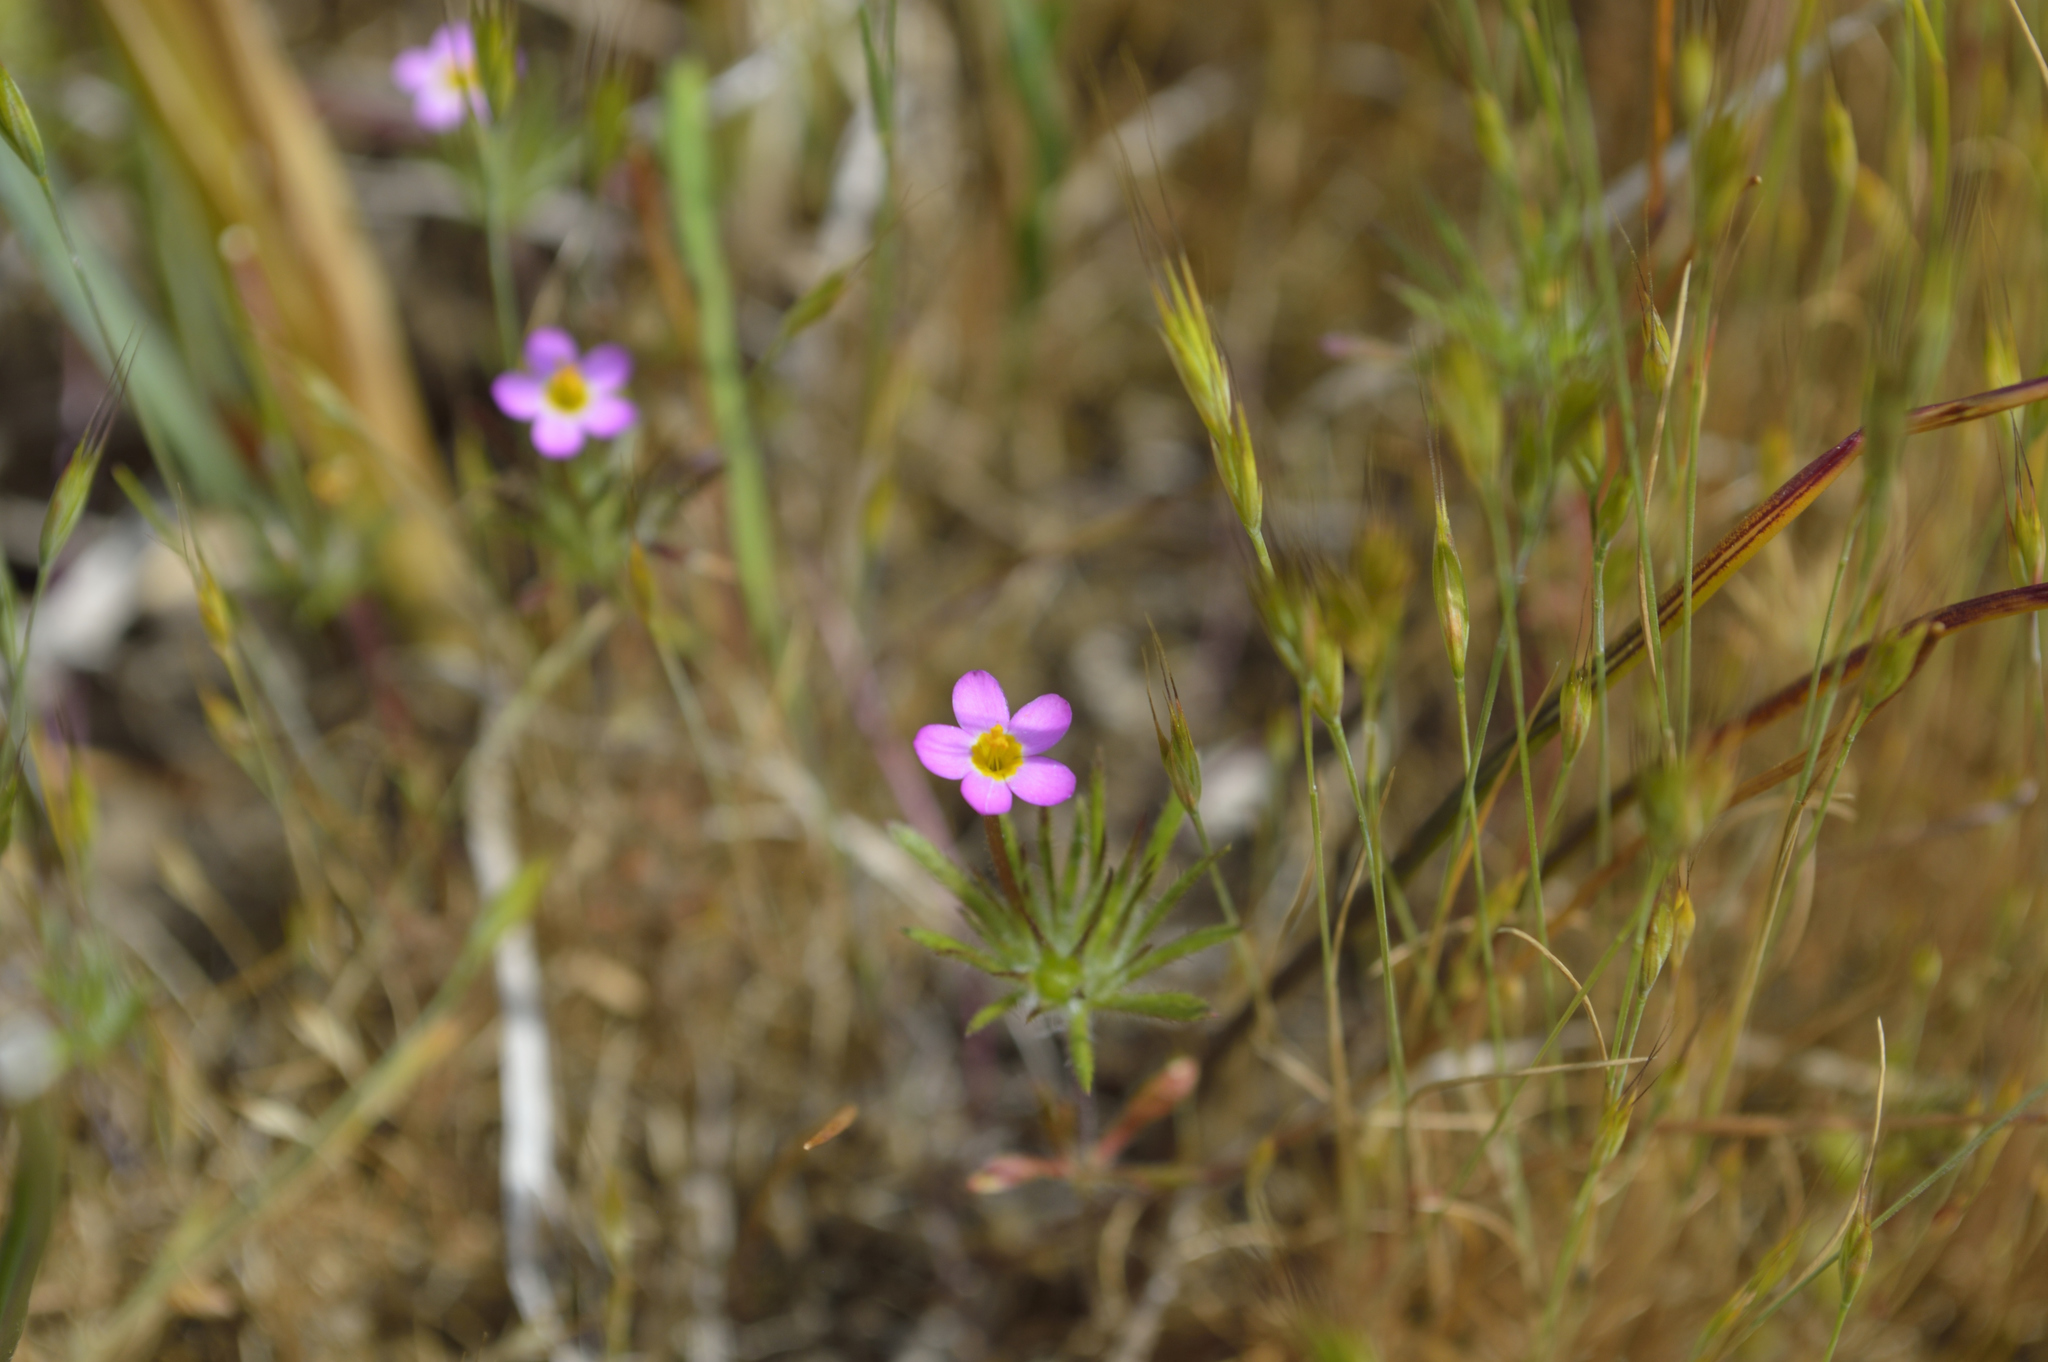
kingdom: Plantae
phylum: Tracheophyta
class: Magnoliopsida
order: Ericales
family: Polemoniaceae
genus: Leptosiphon
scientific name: Leptosiphon bicolor
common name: True babystars
